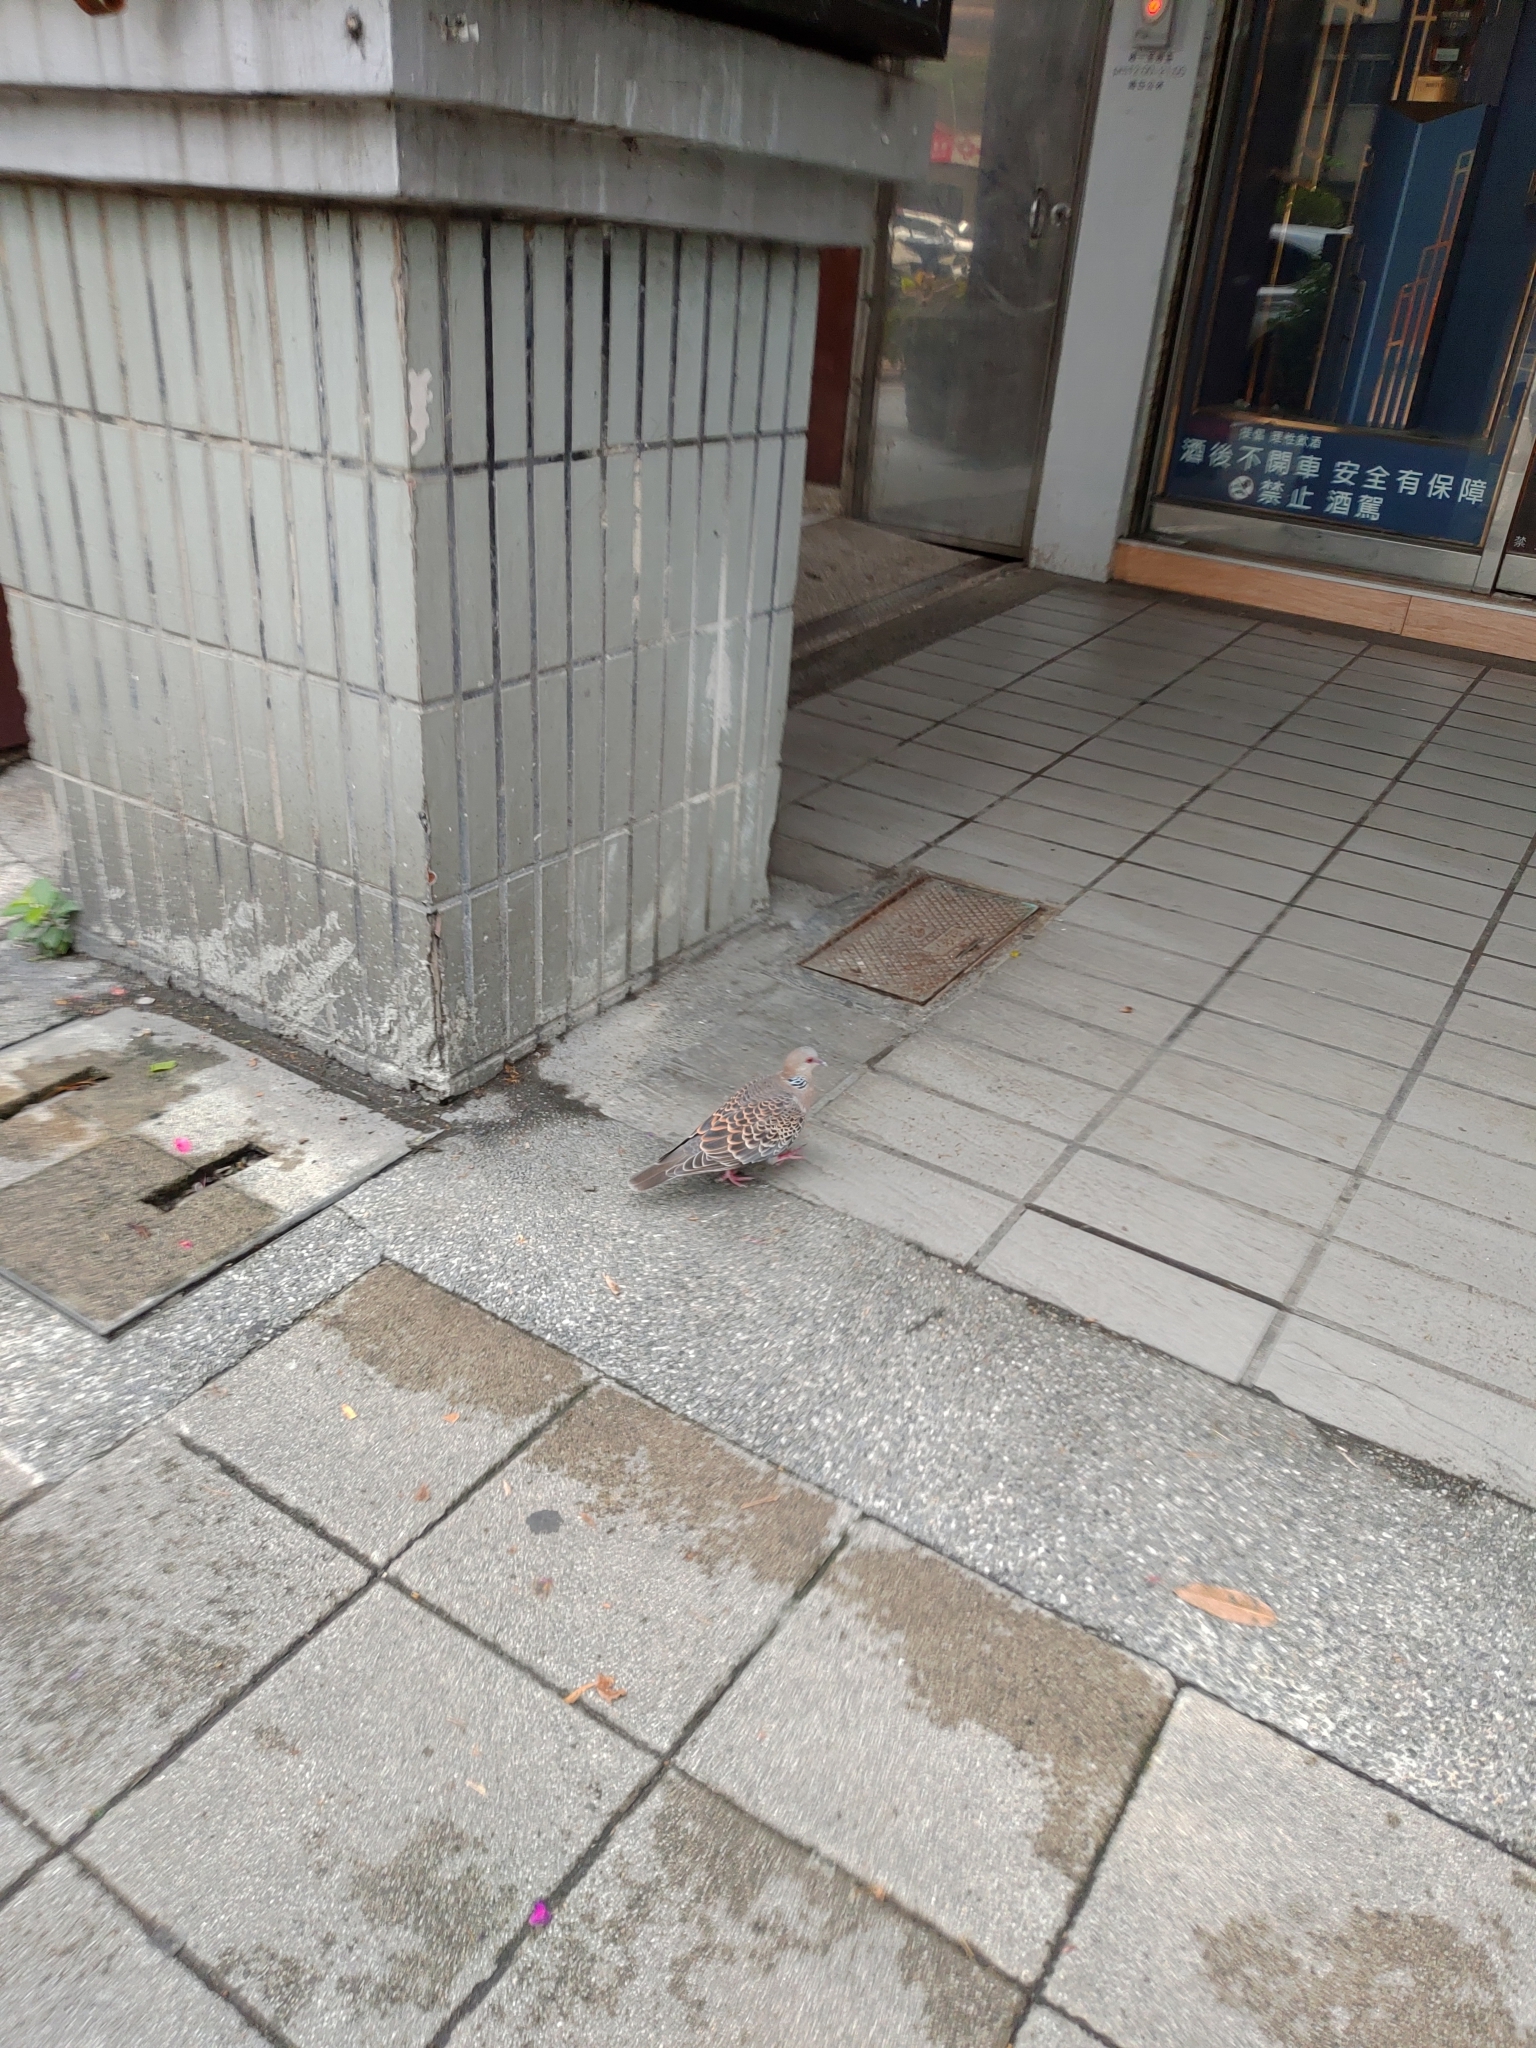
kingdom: Animalia
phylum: Chordata
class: Aves
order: Columbiformes
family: Columbidae
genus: Streptopelia
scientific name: Streptopelia orientalis
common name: Oriental turtle dove
